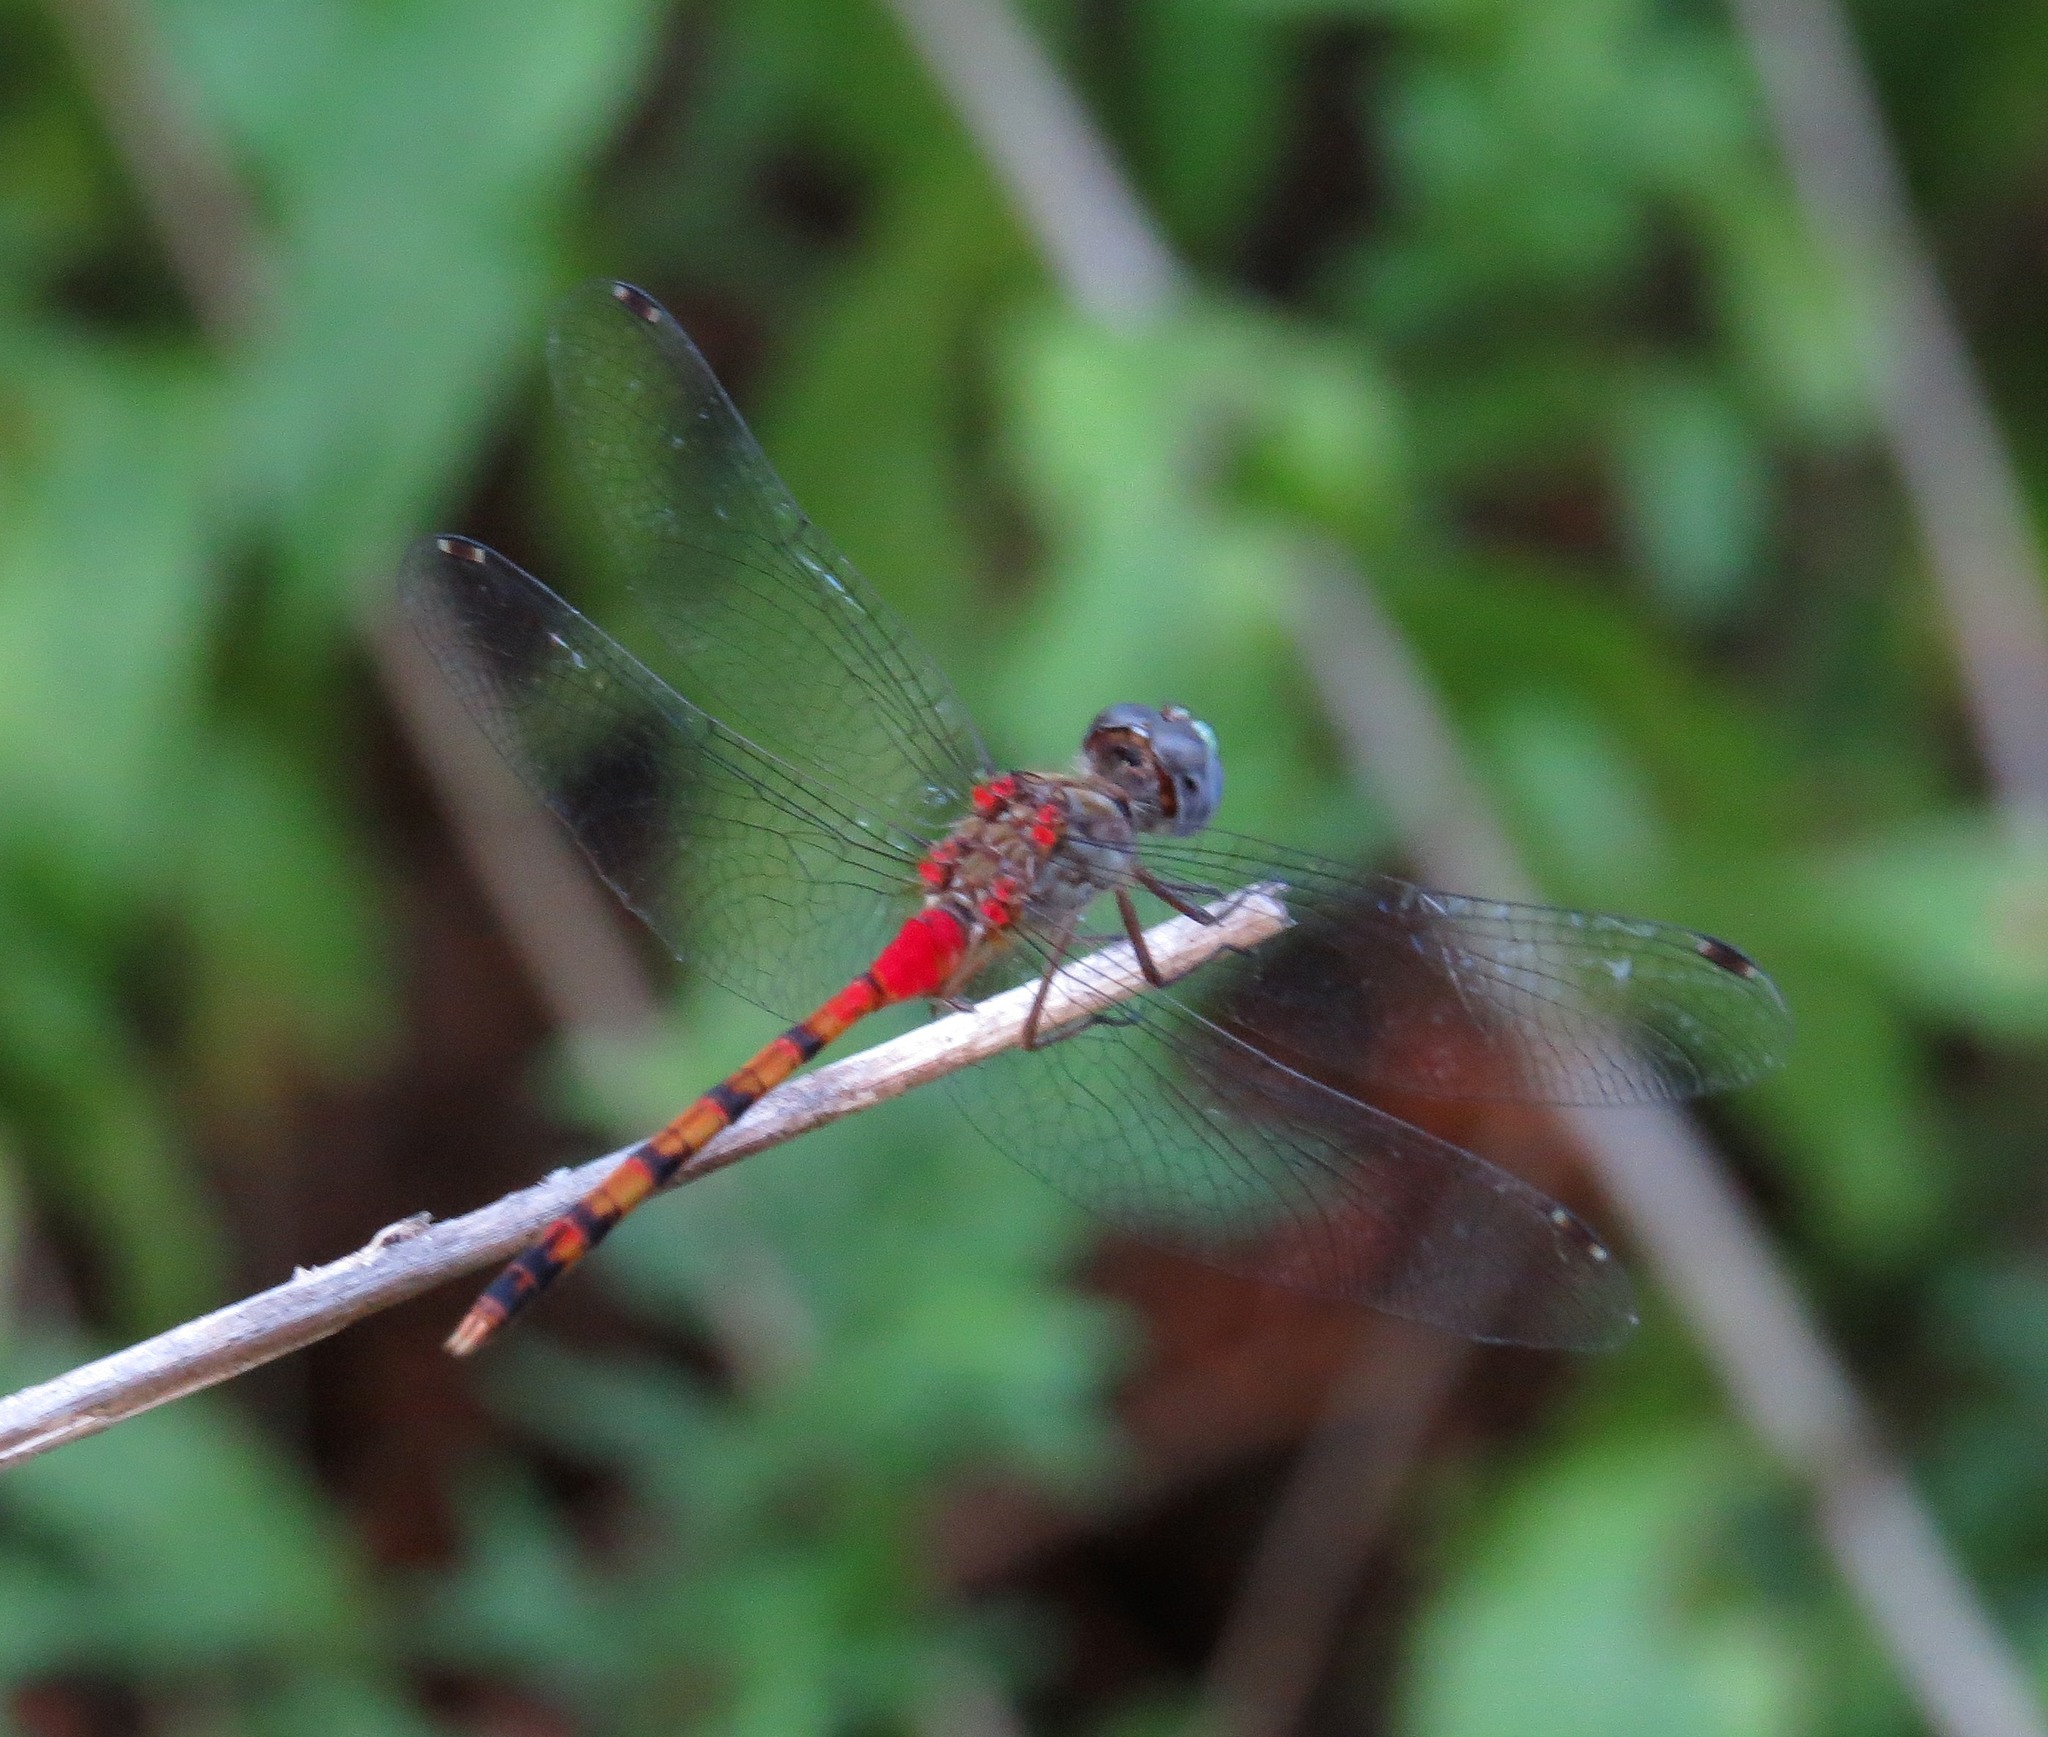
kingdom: Animalia
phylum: Arthropoda
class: Insecta
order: Odonata
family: Libellulidae
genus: Sympetrum
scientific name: Sympetrum ambiguum
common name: Blue-faced meadowhawk
